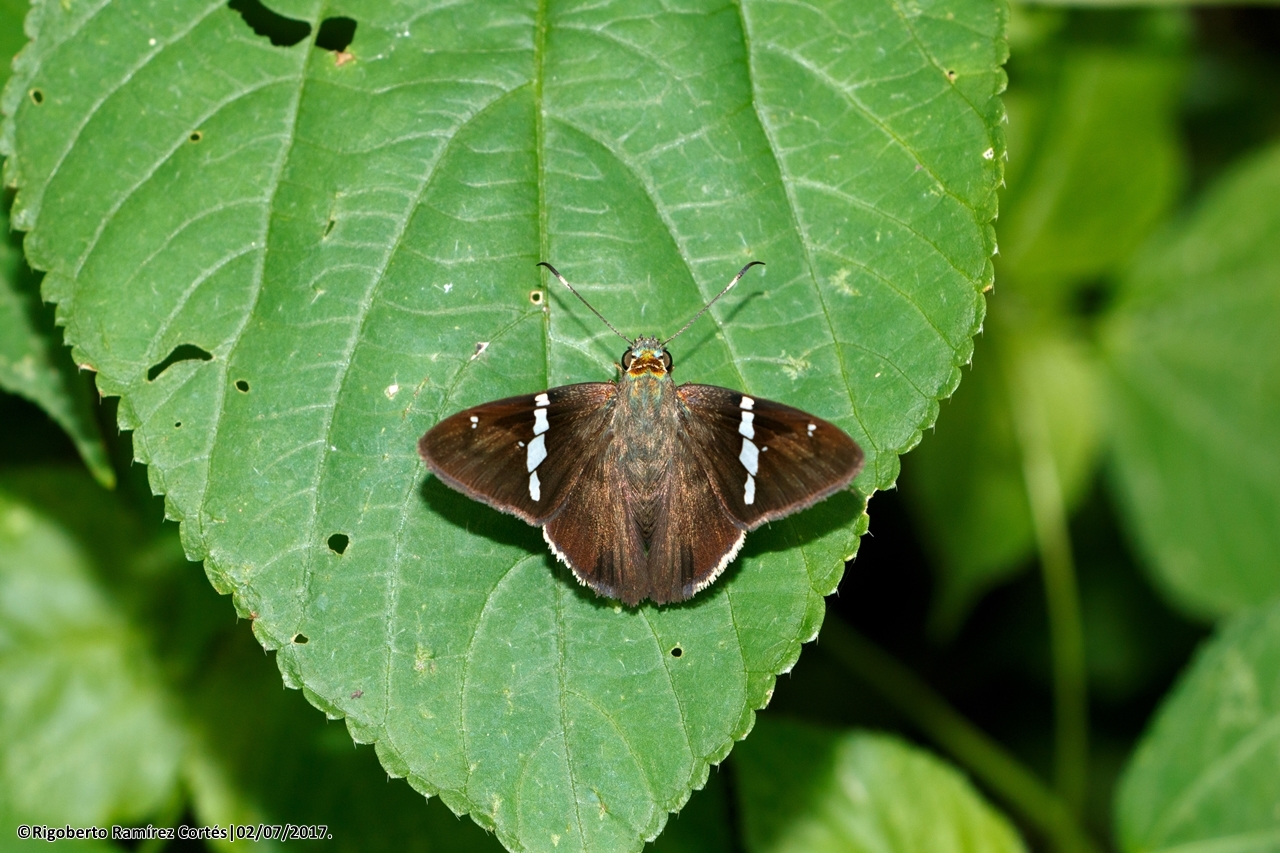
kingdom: Animalia
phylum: Arthropoda
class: Insecta
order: Lepidoptera
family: Hesperiidae
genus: Autochton
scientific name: Autochton neis
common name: Broad-banded skipper
